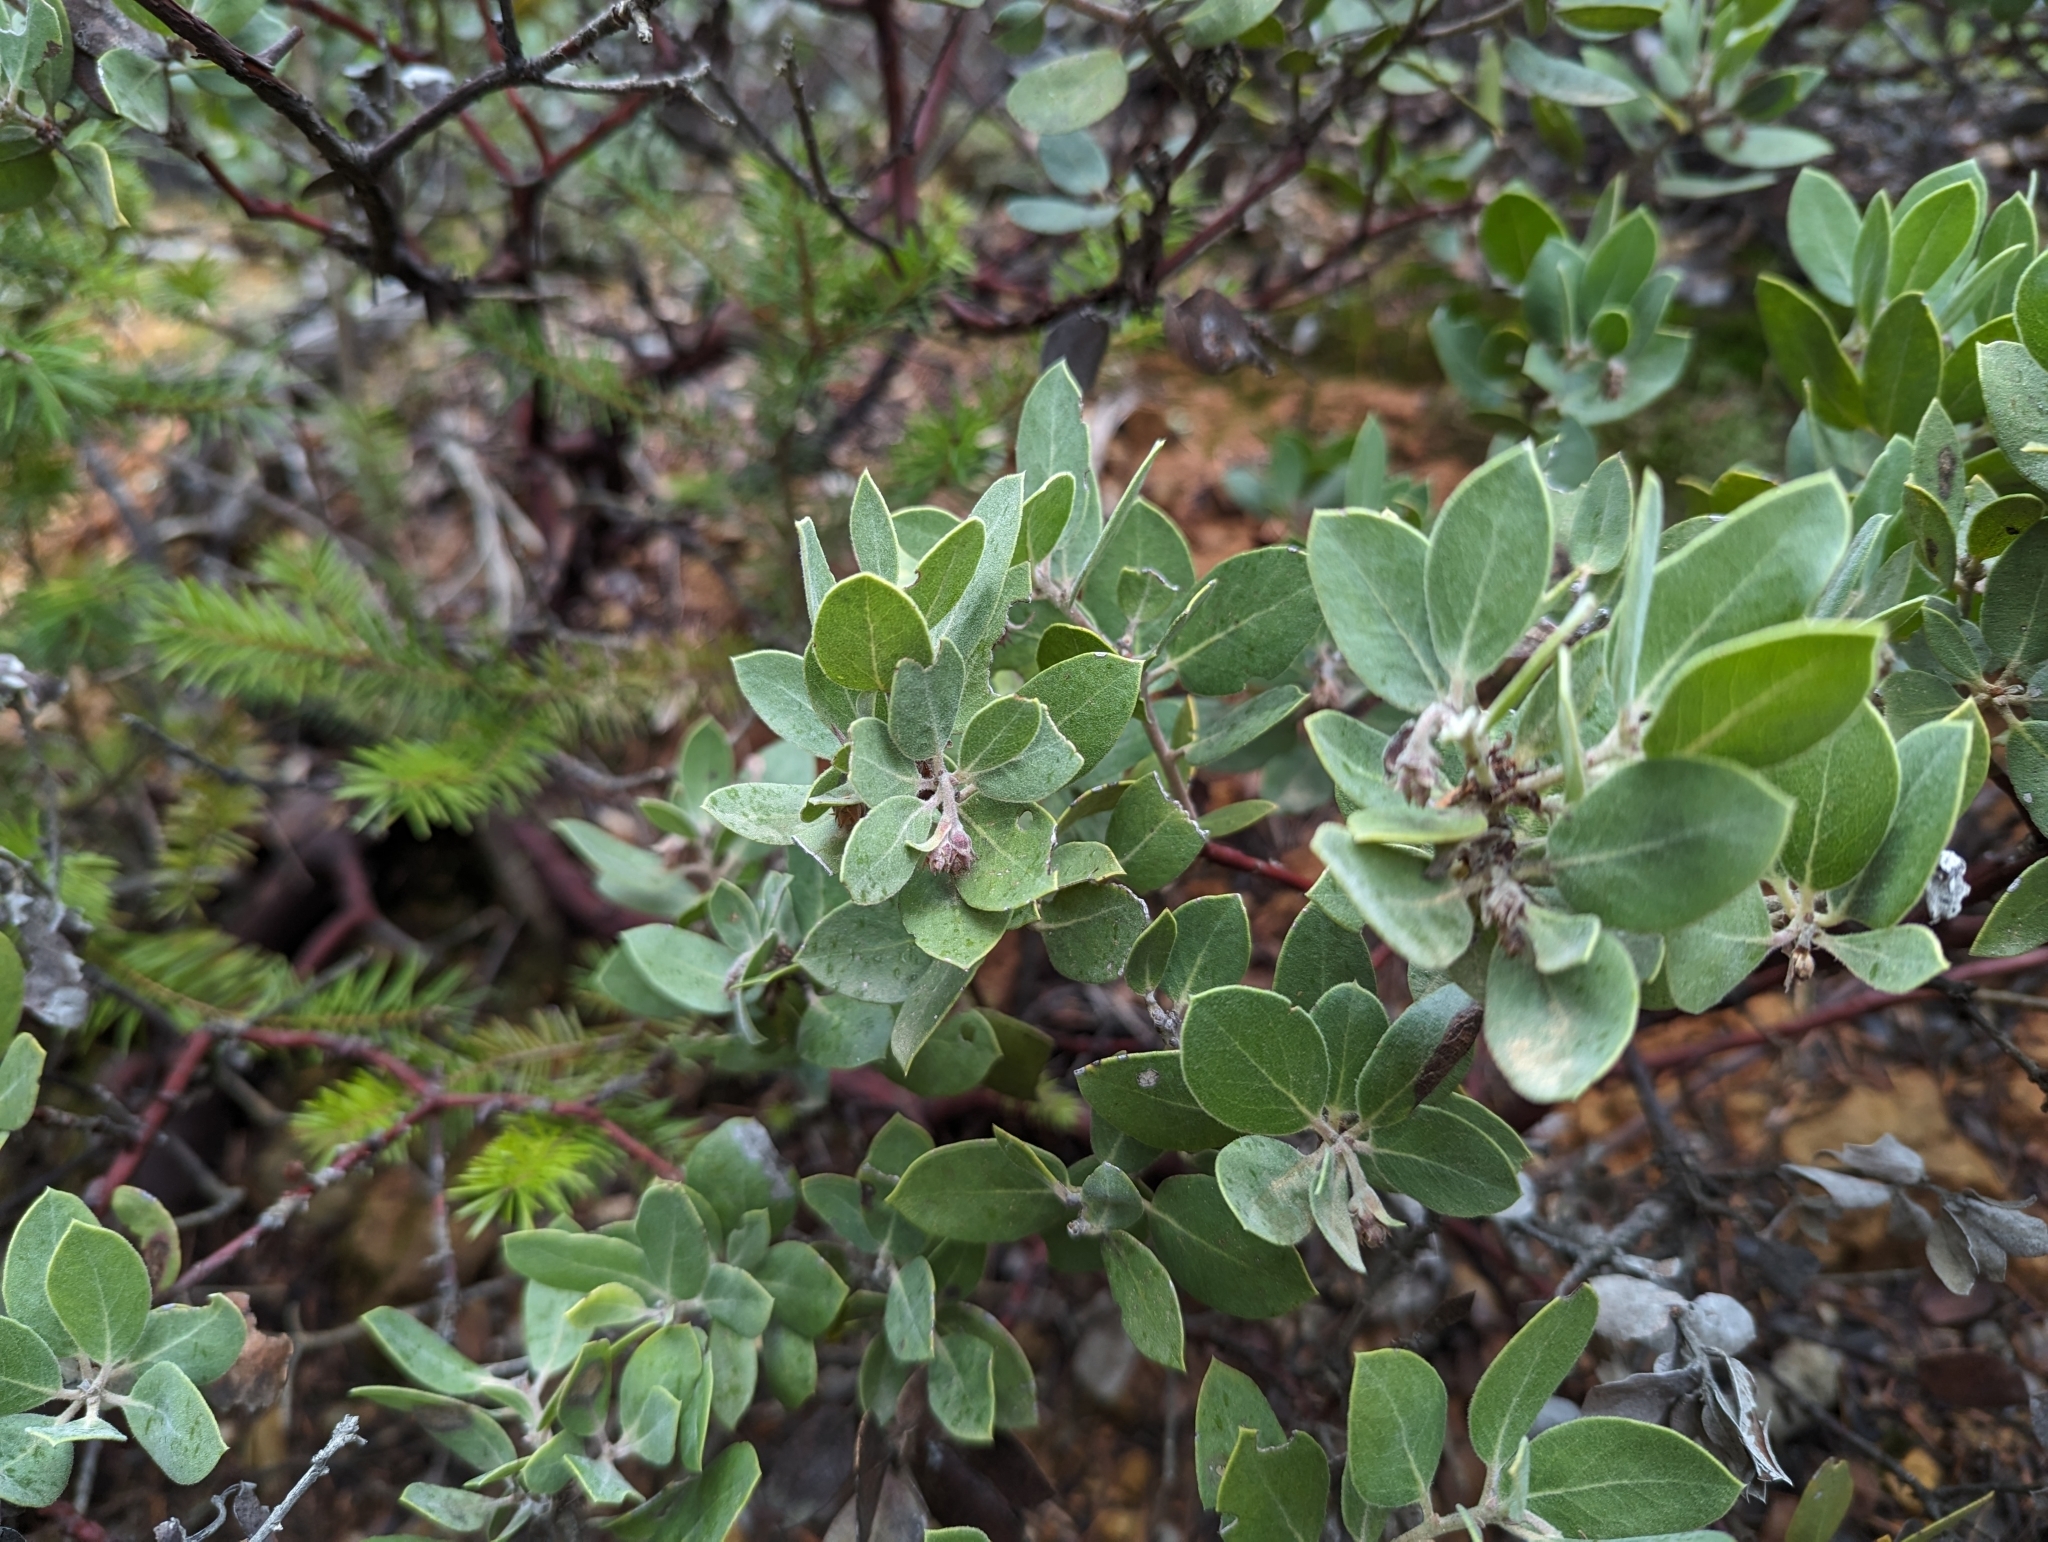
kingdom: Plantae
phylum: Tracheophyta
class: Magnoliopsida
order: Ericales
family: Ericaceae
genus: Arctostaphylos
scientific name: Arctostaphylos glandulosa
